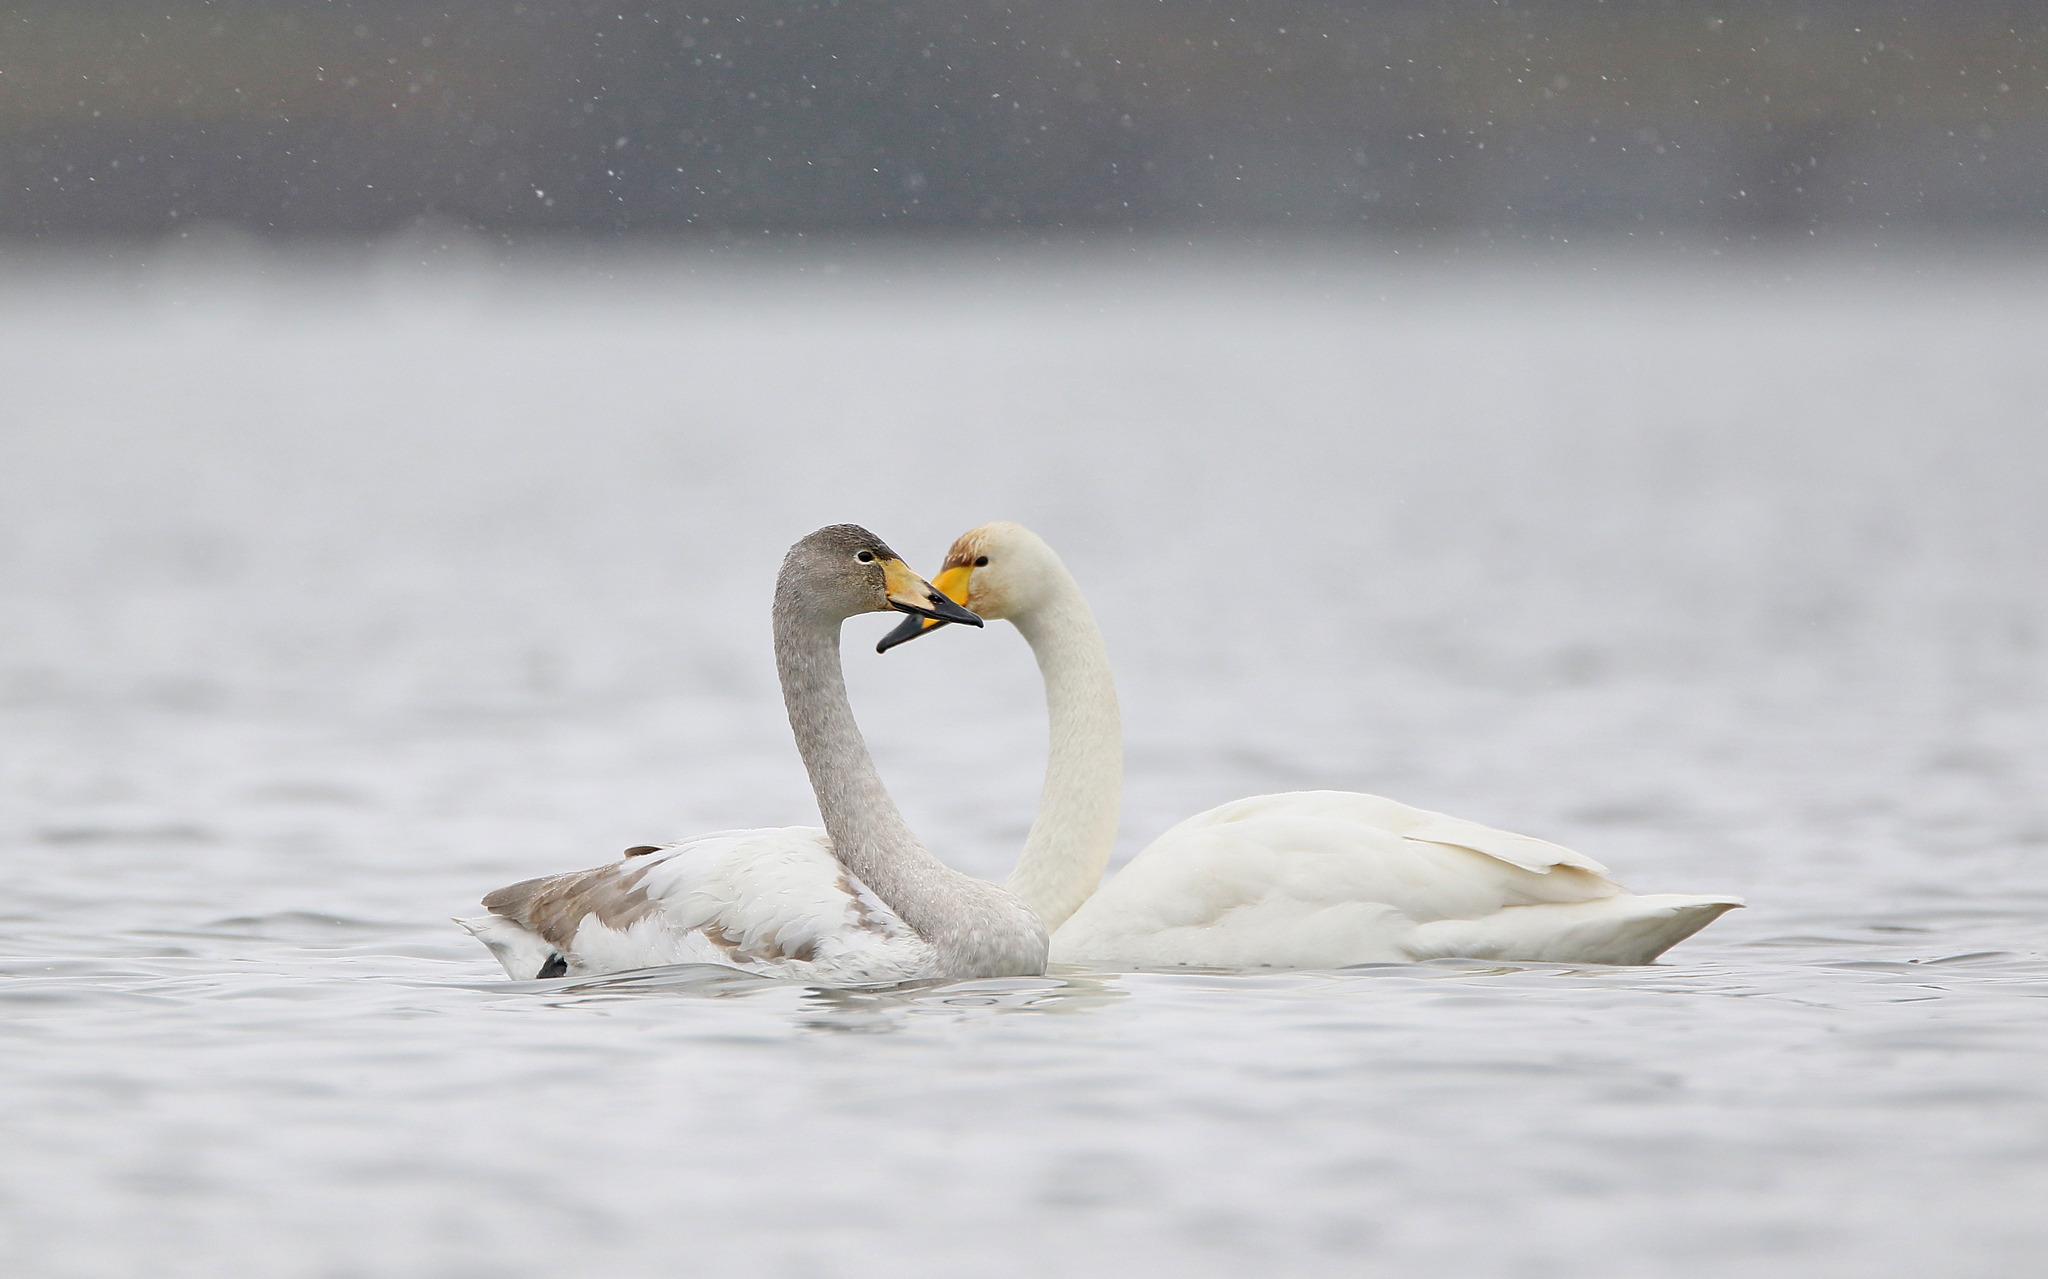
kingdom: Animalia
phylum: Chordata
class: Aves
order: Anseriformes
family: Anatidae
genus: Cygnus
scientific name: Cygnus cygnus
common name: Whooper swan
